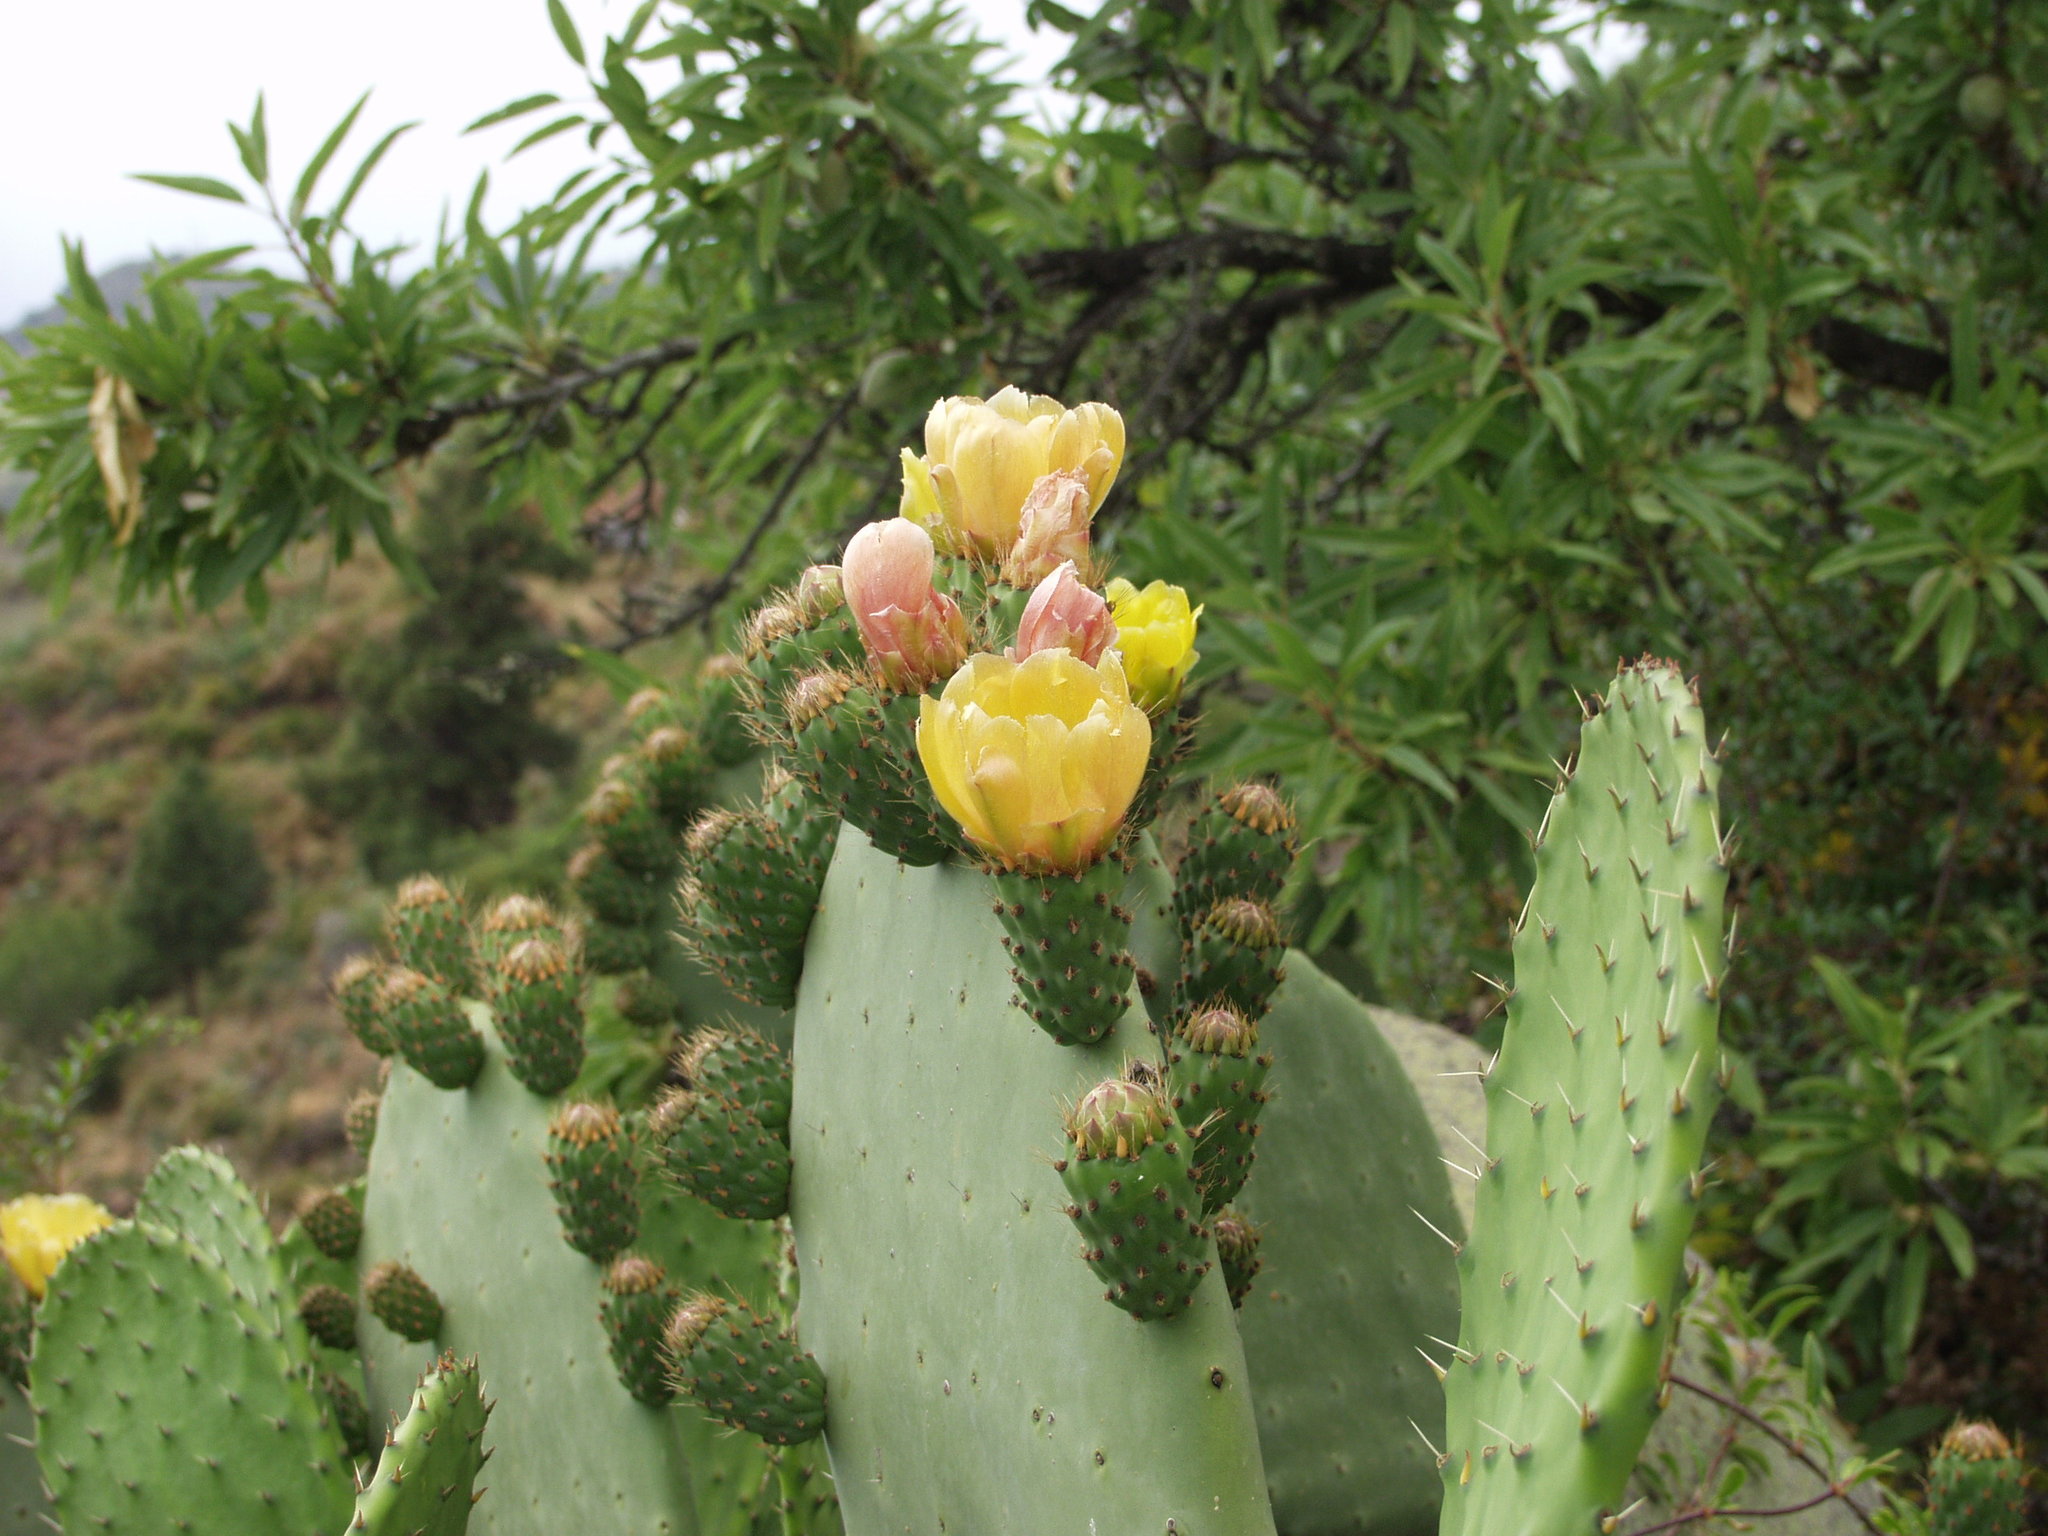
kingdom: Plantae
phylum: Tracheophyta
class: Magnoliopsida
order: Caryophyllales
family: Cactaceae
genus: Opuntia
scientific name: Opuntia ficus-indica
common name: Barbary fig
